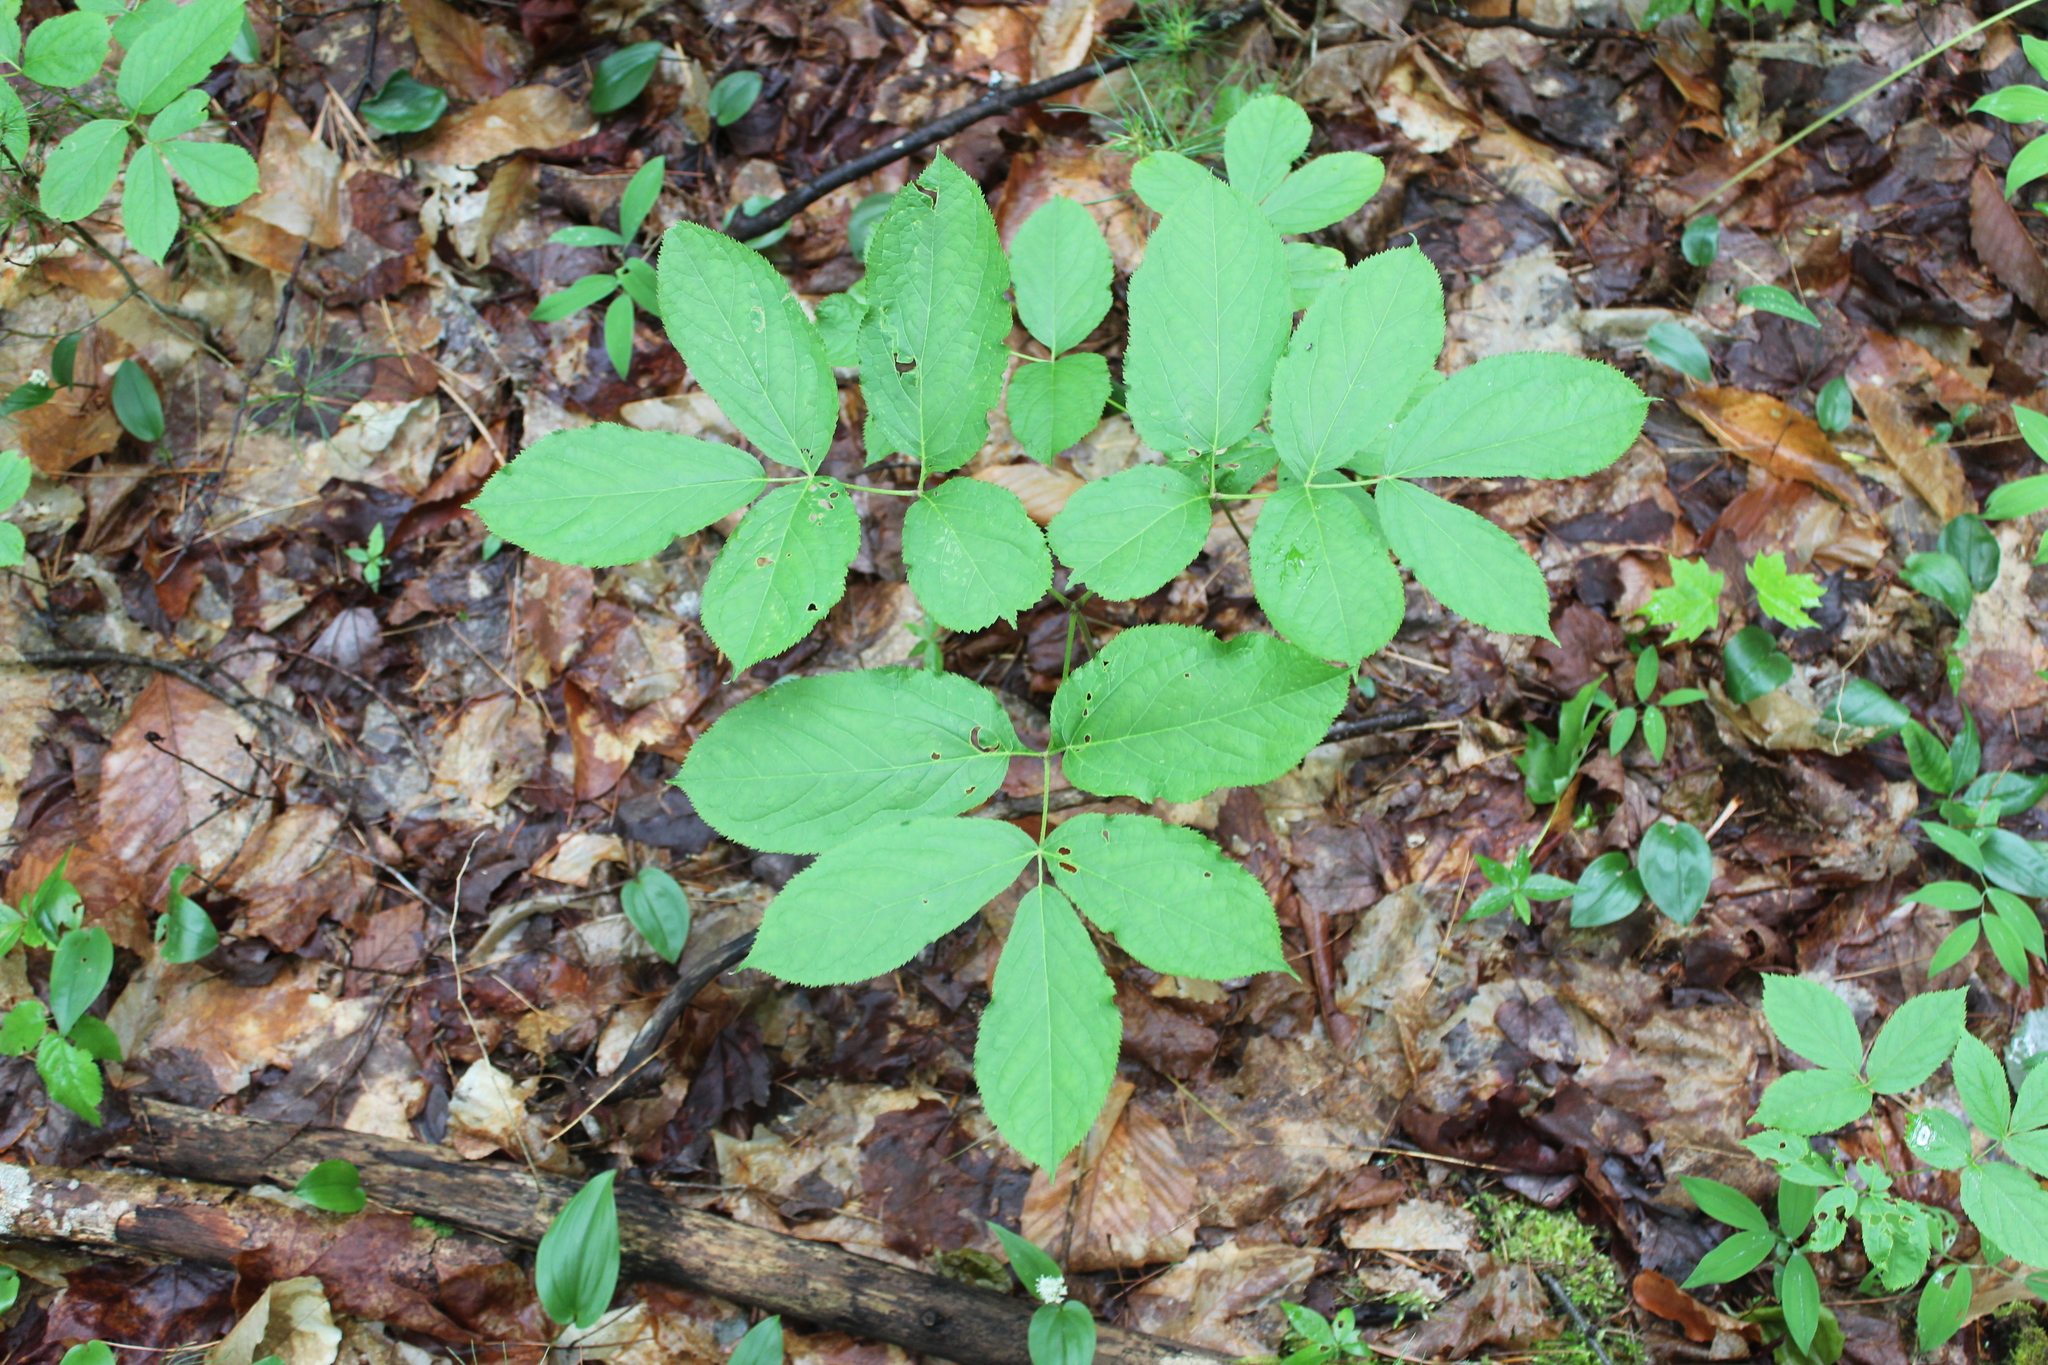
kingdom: Plantae
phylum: Tracheophyta
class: Magnoliopsida
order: Apiales
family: Araliaceae
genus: Aralia
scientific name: Aralia nudicaulis
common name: Wild sarsaparilla
